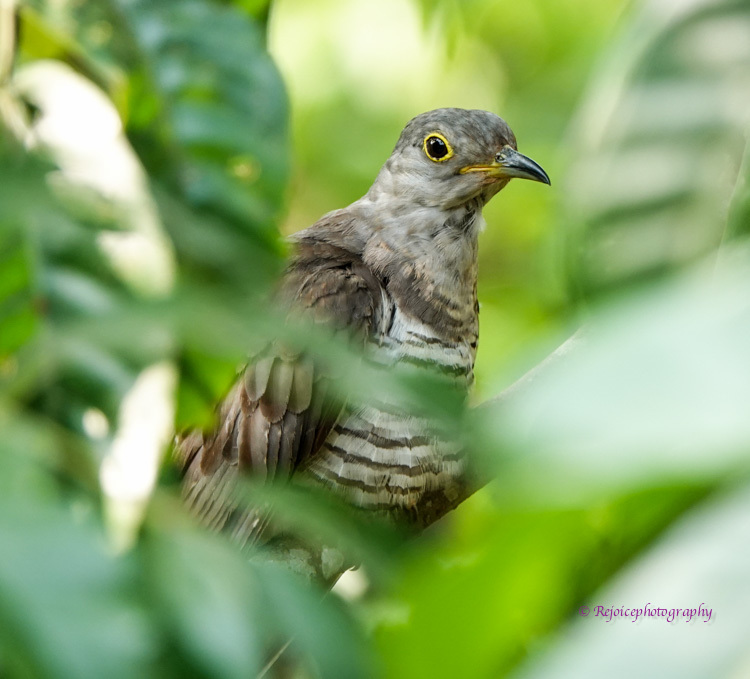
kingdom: Animalia
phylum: Chordata
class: Aves
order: Cuculiformes
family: Cuculidae
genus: Cuculus
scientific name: Cuculus micropterus
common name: Indian cuckoo
